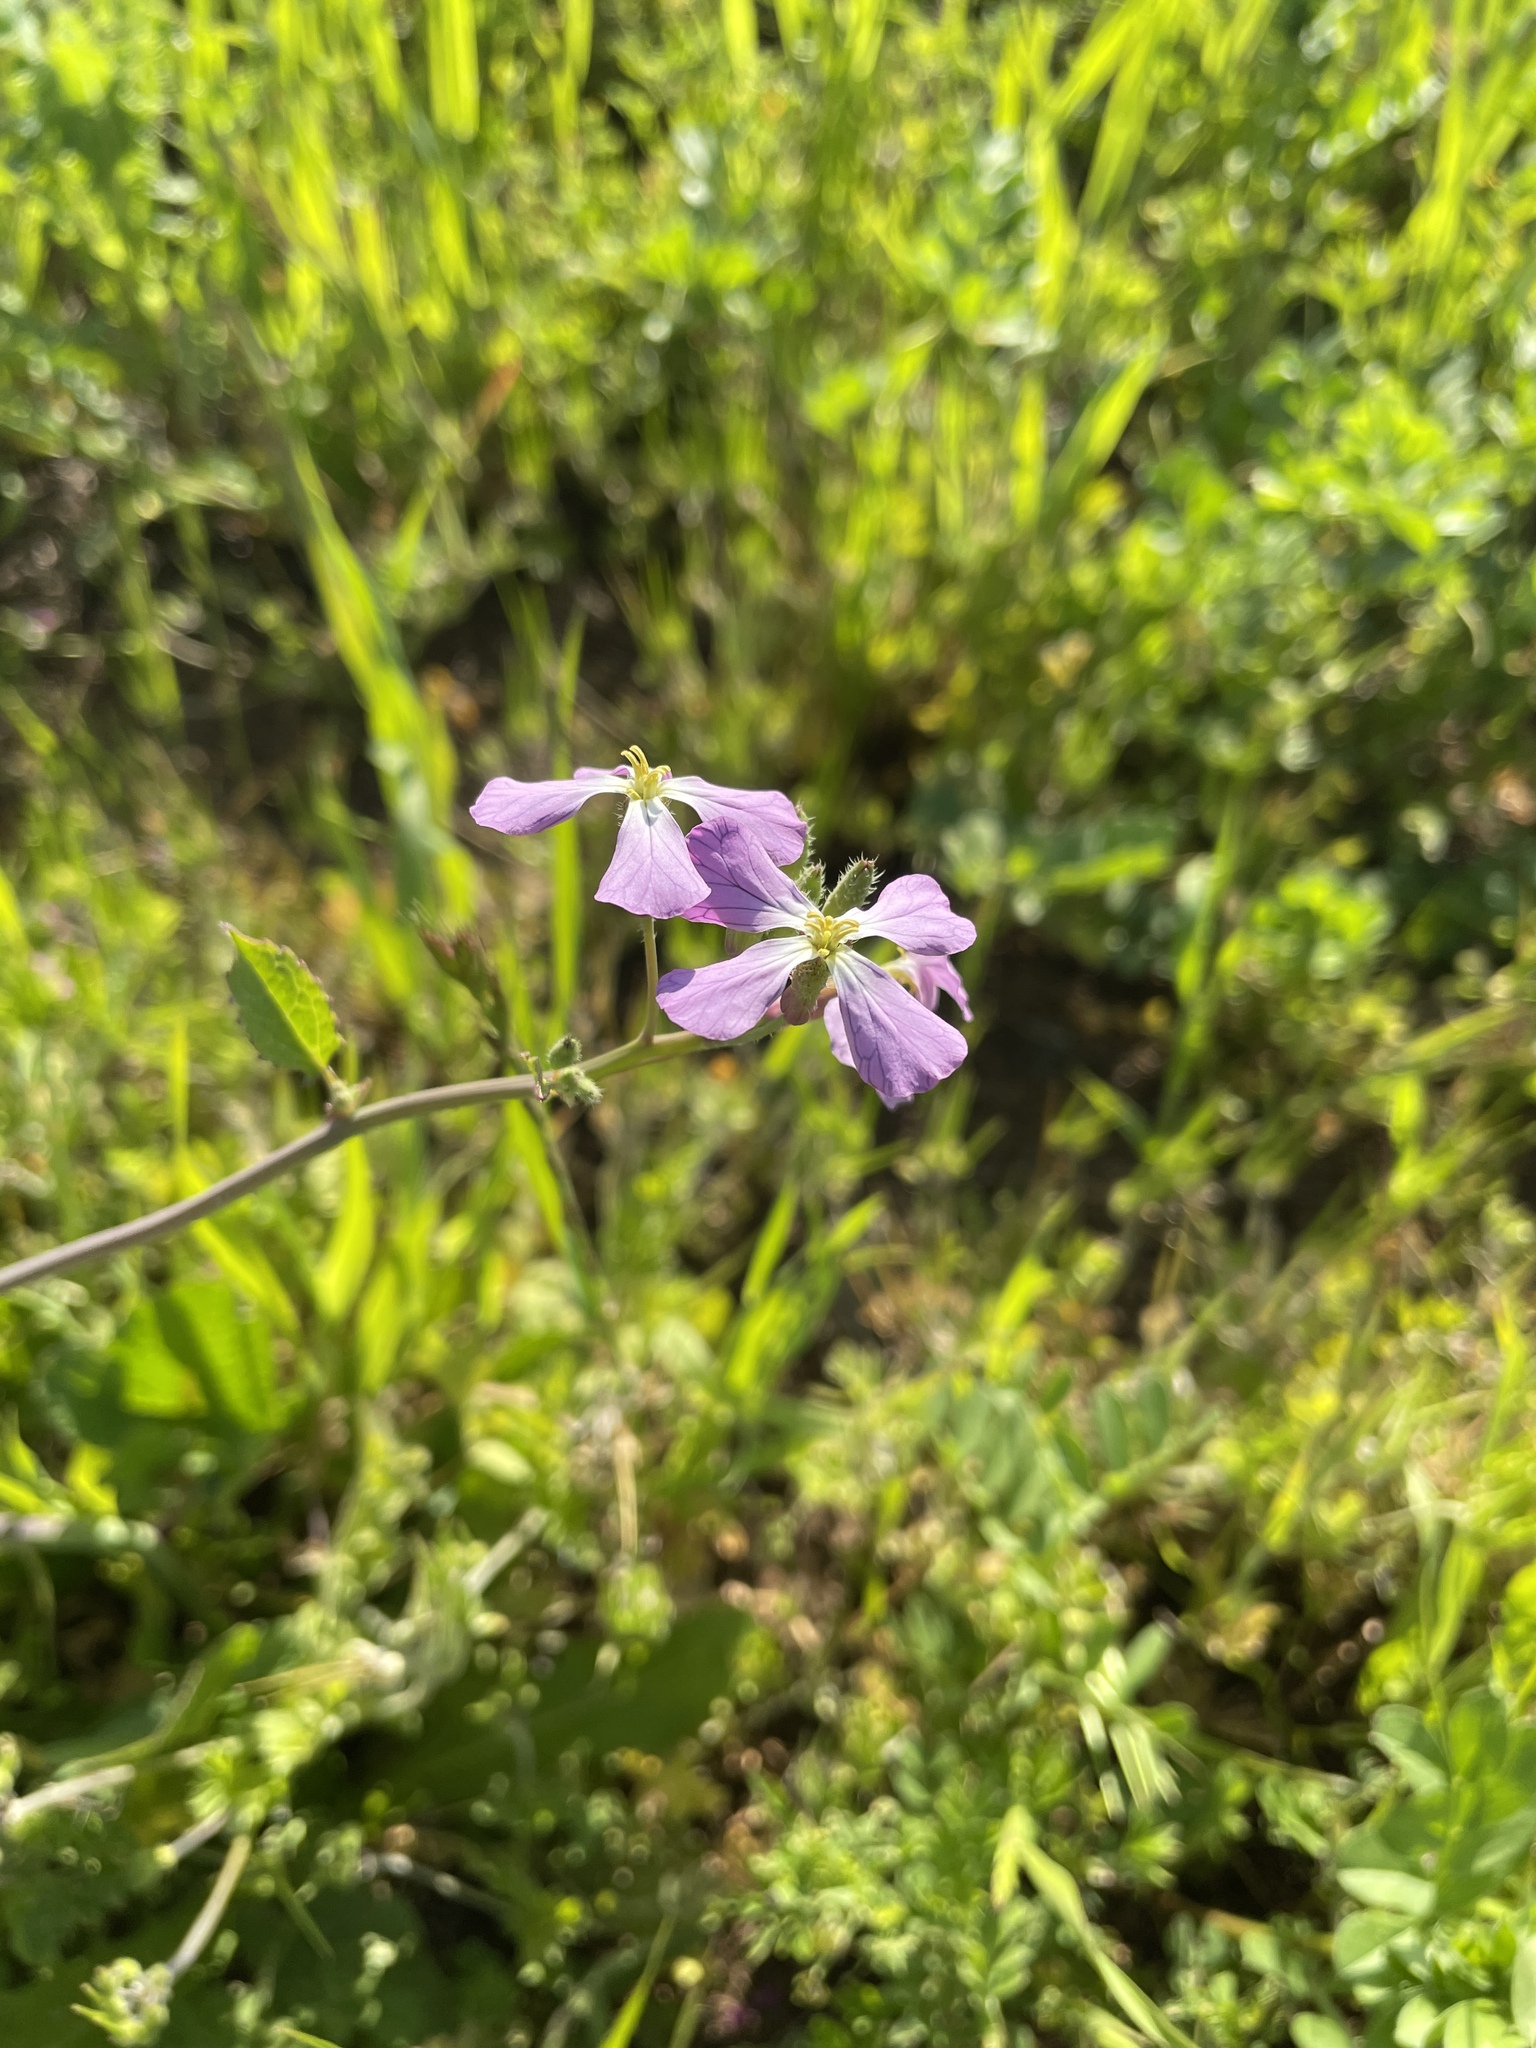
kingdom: Plantae
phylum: Tracheophyta
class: Magnoliopsida
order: Brassicales
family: Brassicaceae
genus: Raphanus
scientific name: Raphanus sativus
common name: Cultivated radish
